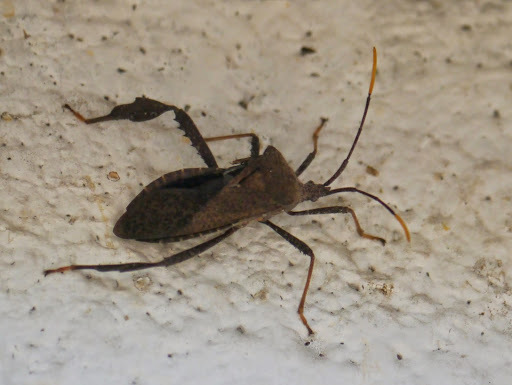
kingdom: Animalia
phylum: Arthropoda
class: Insecta
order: Hemiptera
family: Coreidae
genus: Acanthocephala
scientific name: Acanthocephala terminalis
